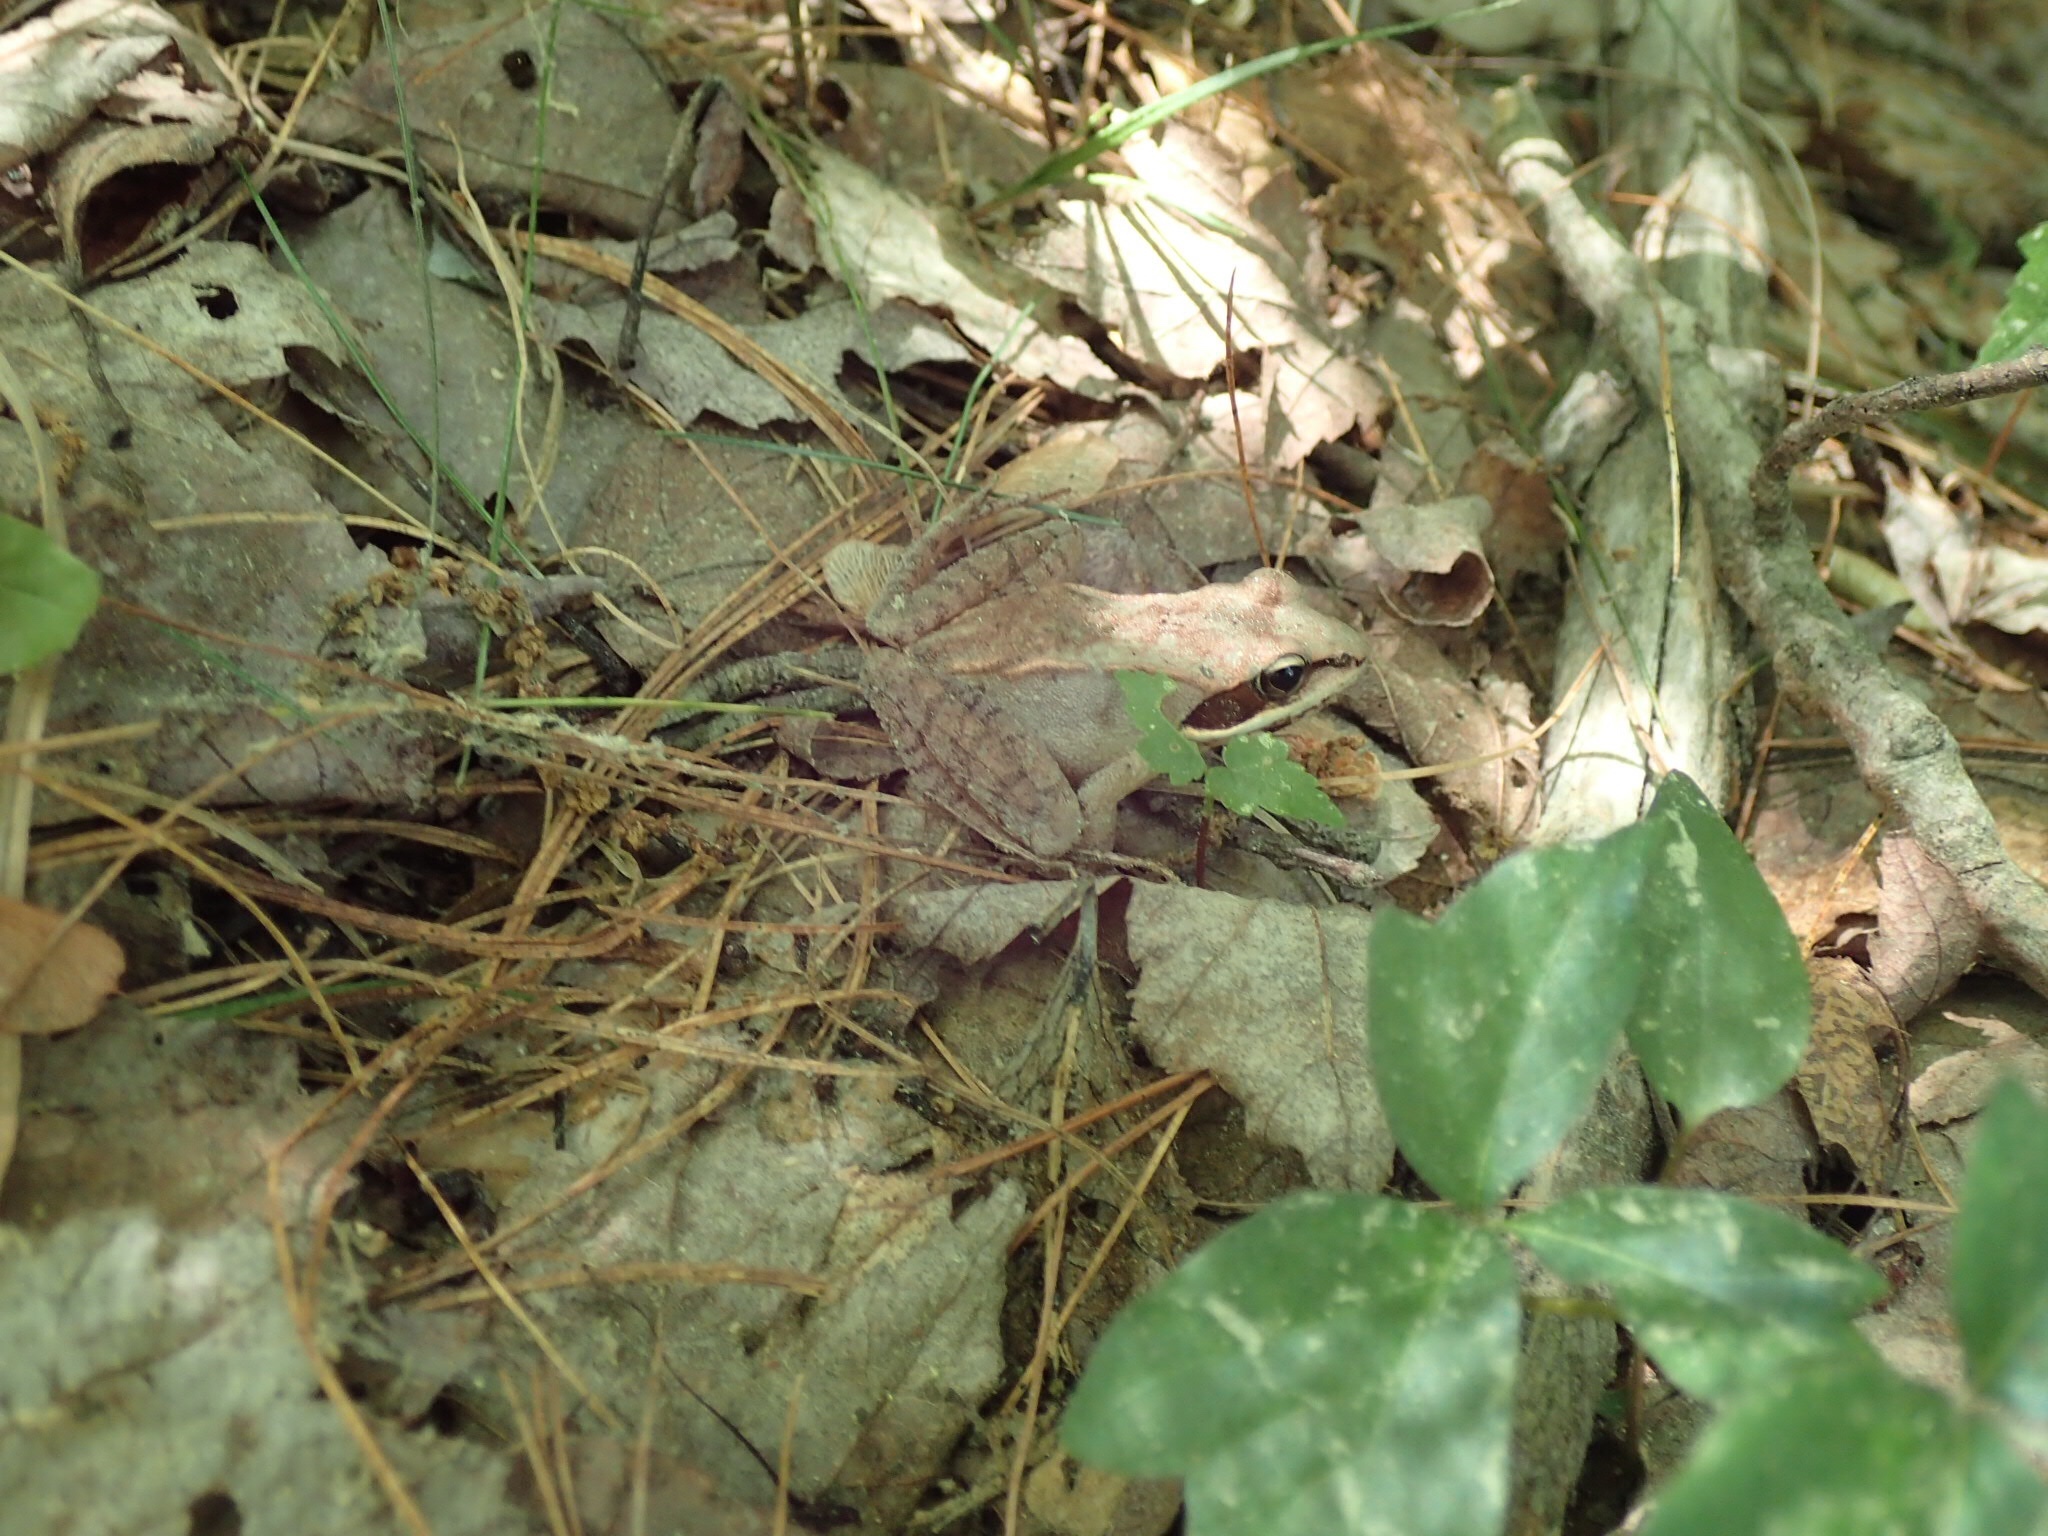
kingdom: Animalia
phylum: Chordata
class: Amphibia
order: Anura
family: Ranidae
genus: Lithobates
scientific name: Lithobates sylvaticus
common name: Wood frog
